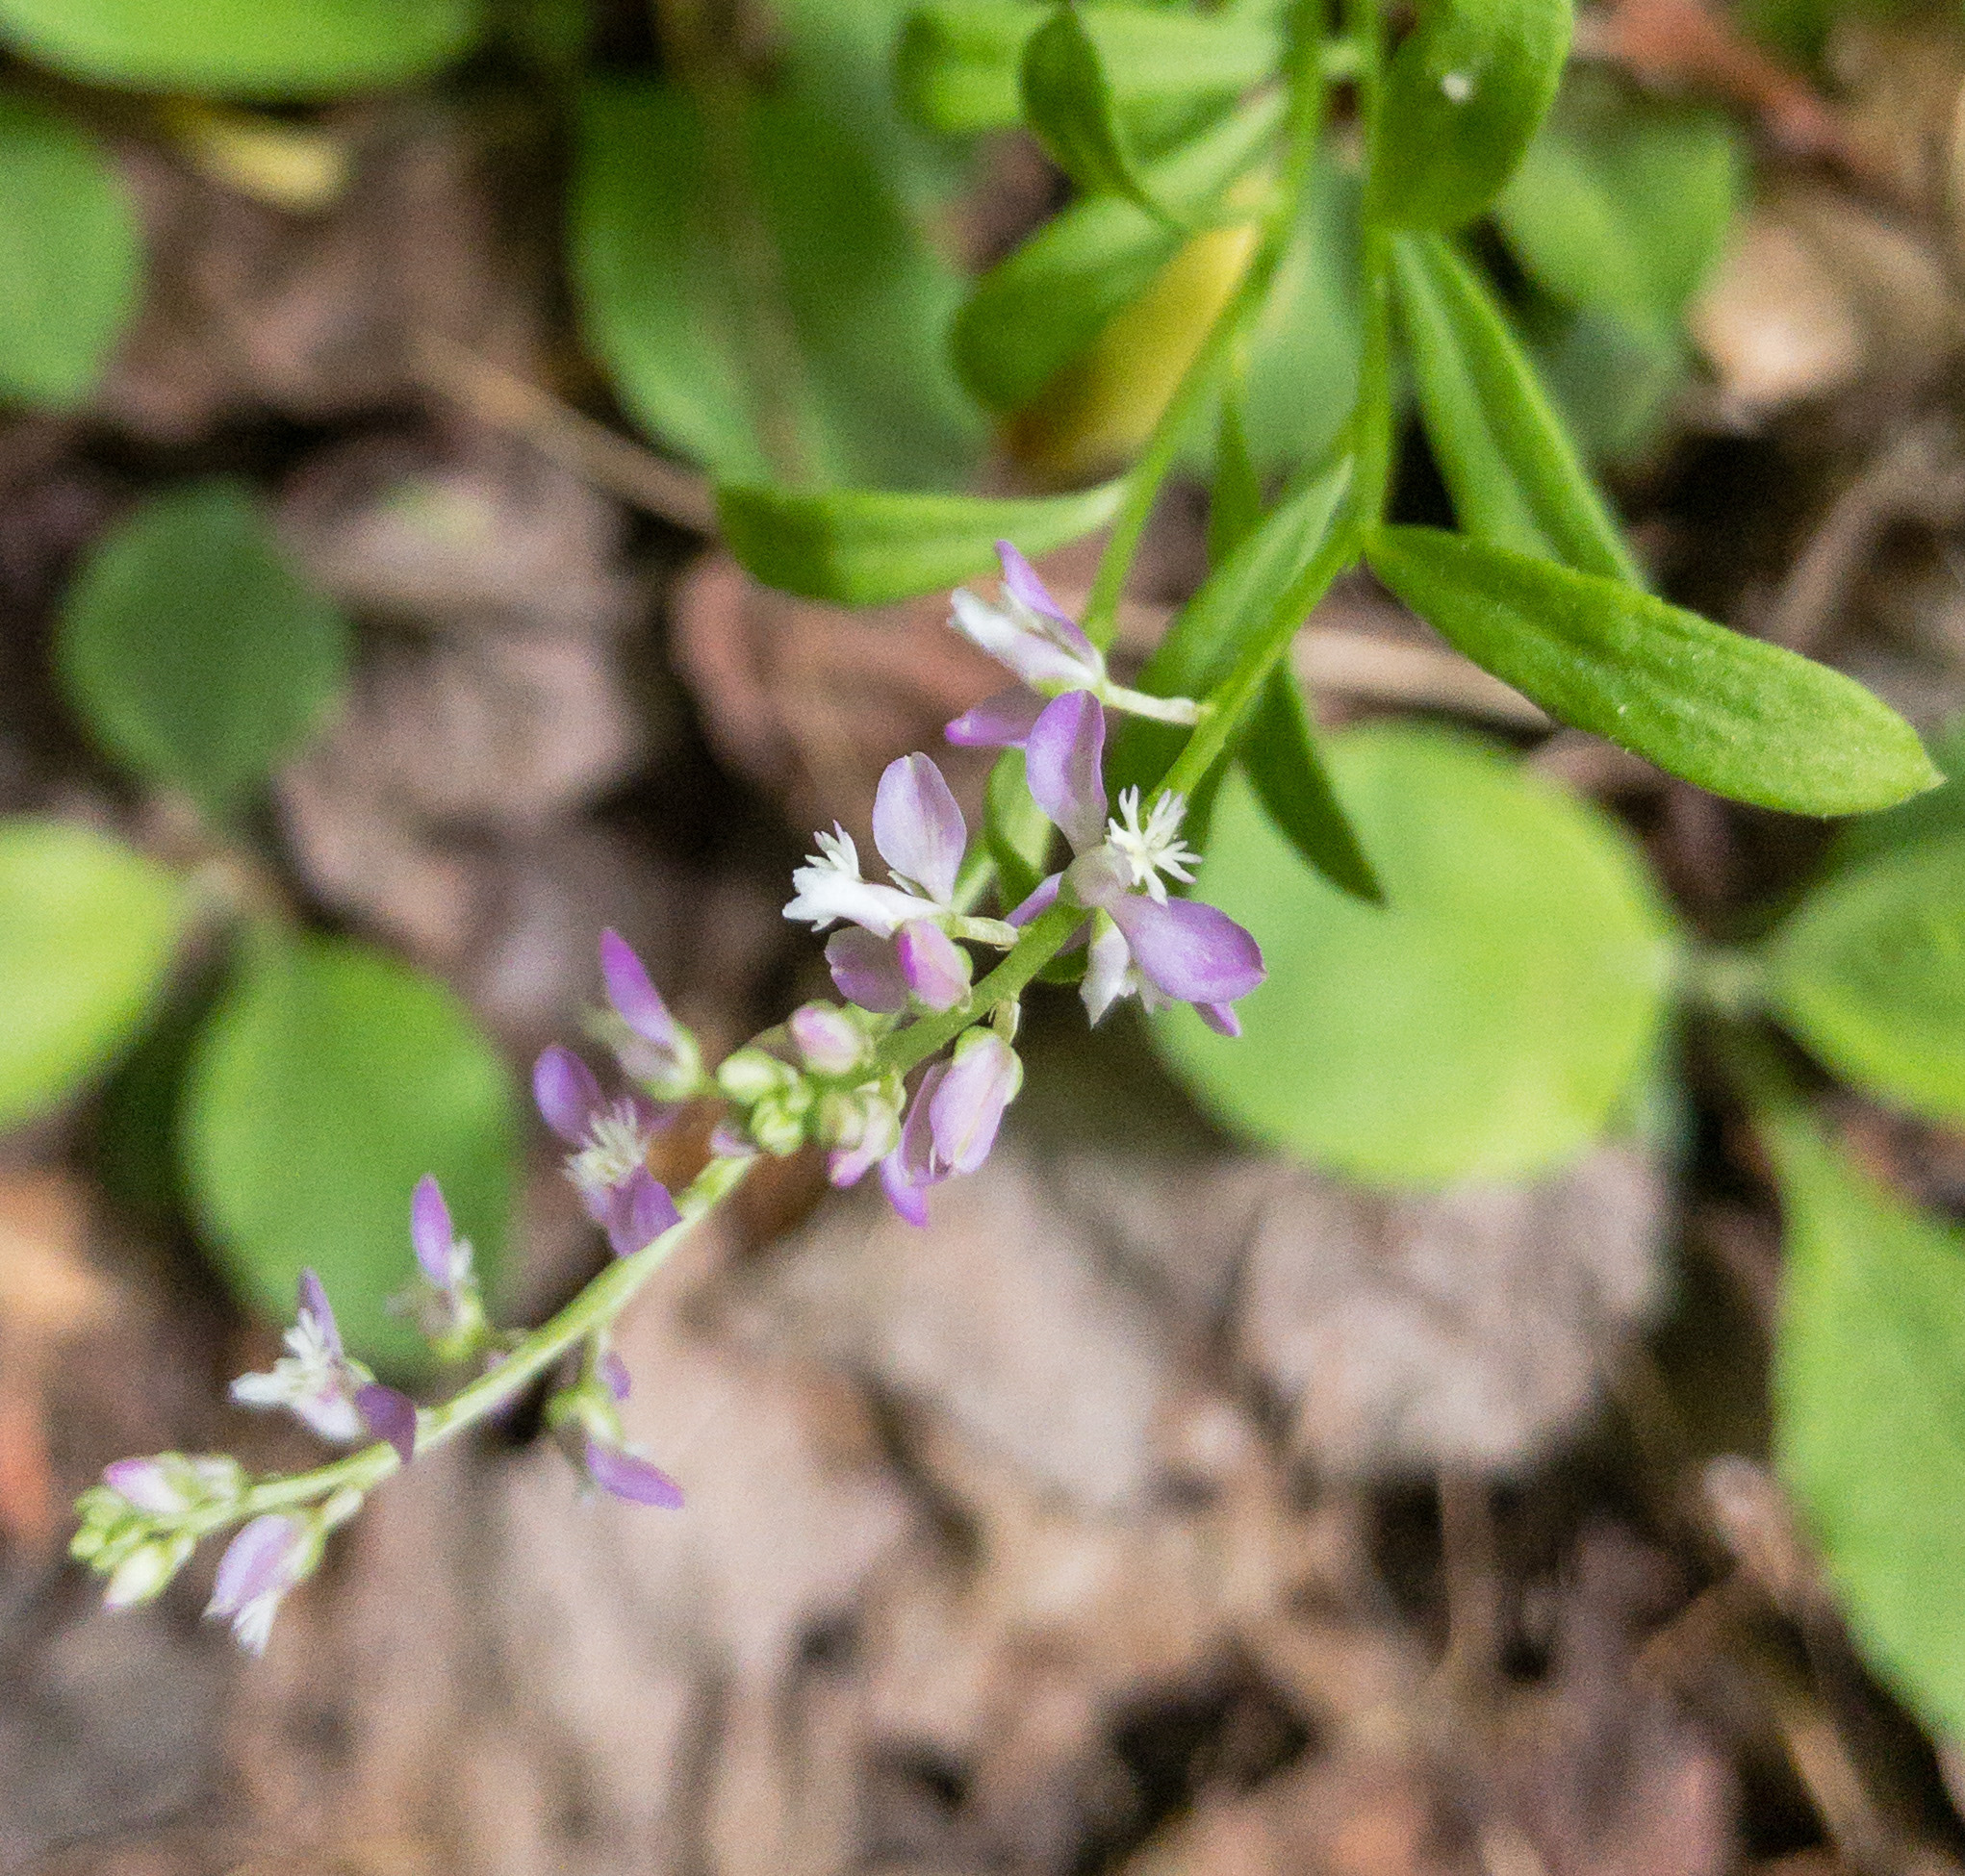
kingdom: Plantae
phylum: Tracheophyta
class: Magnoliopsida
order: Fabales
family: Polygalaceae
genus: Polygala
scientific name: Polygala polygama
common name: Bitter milkwort
